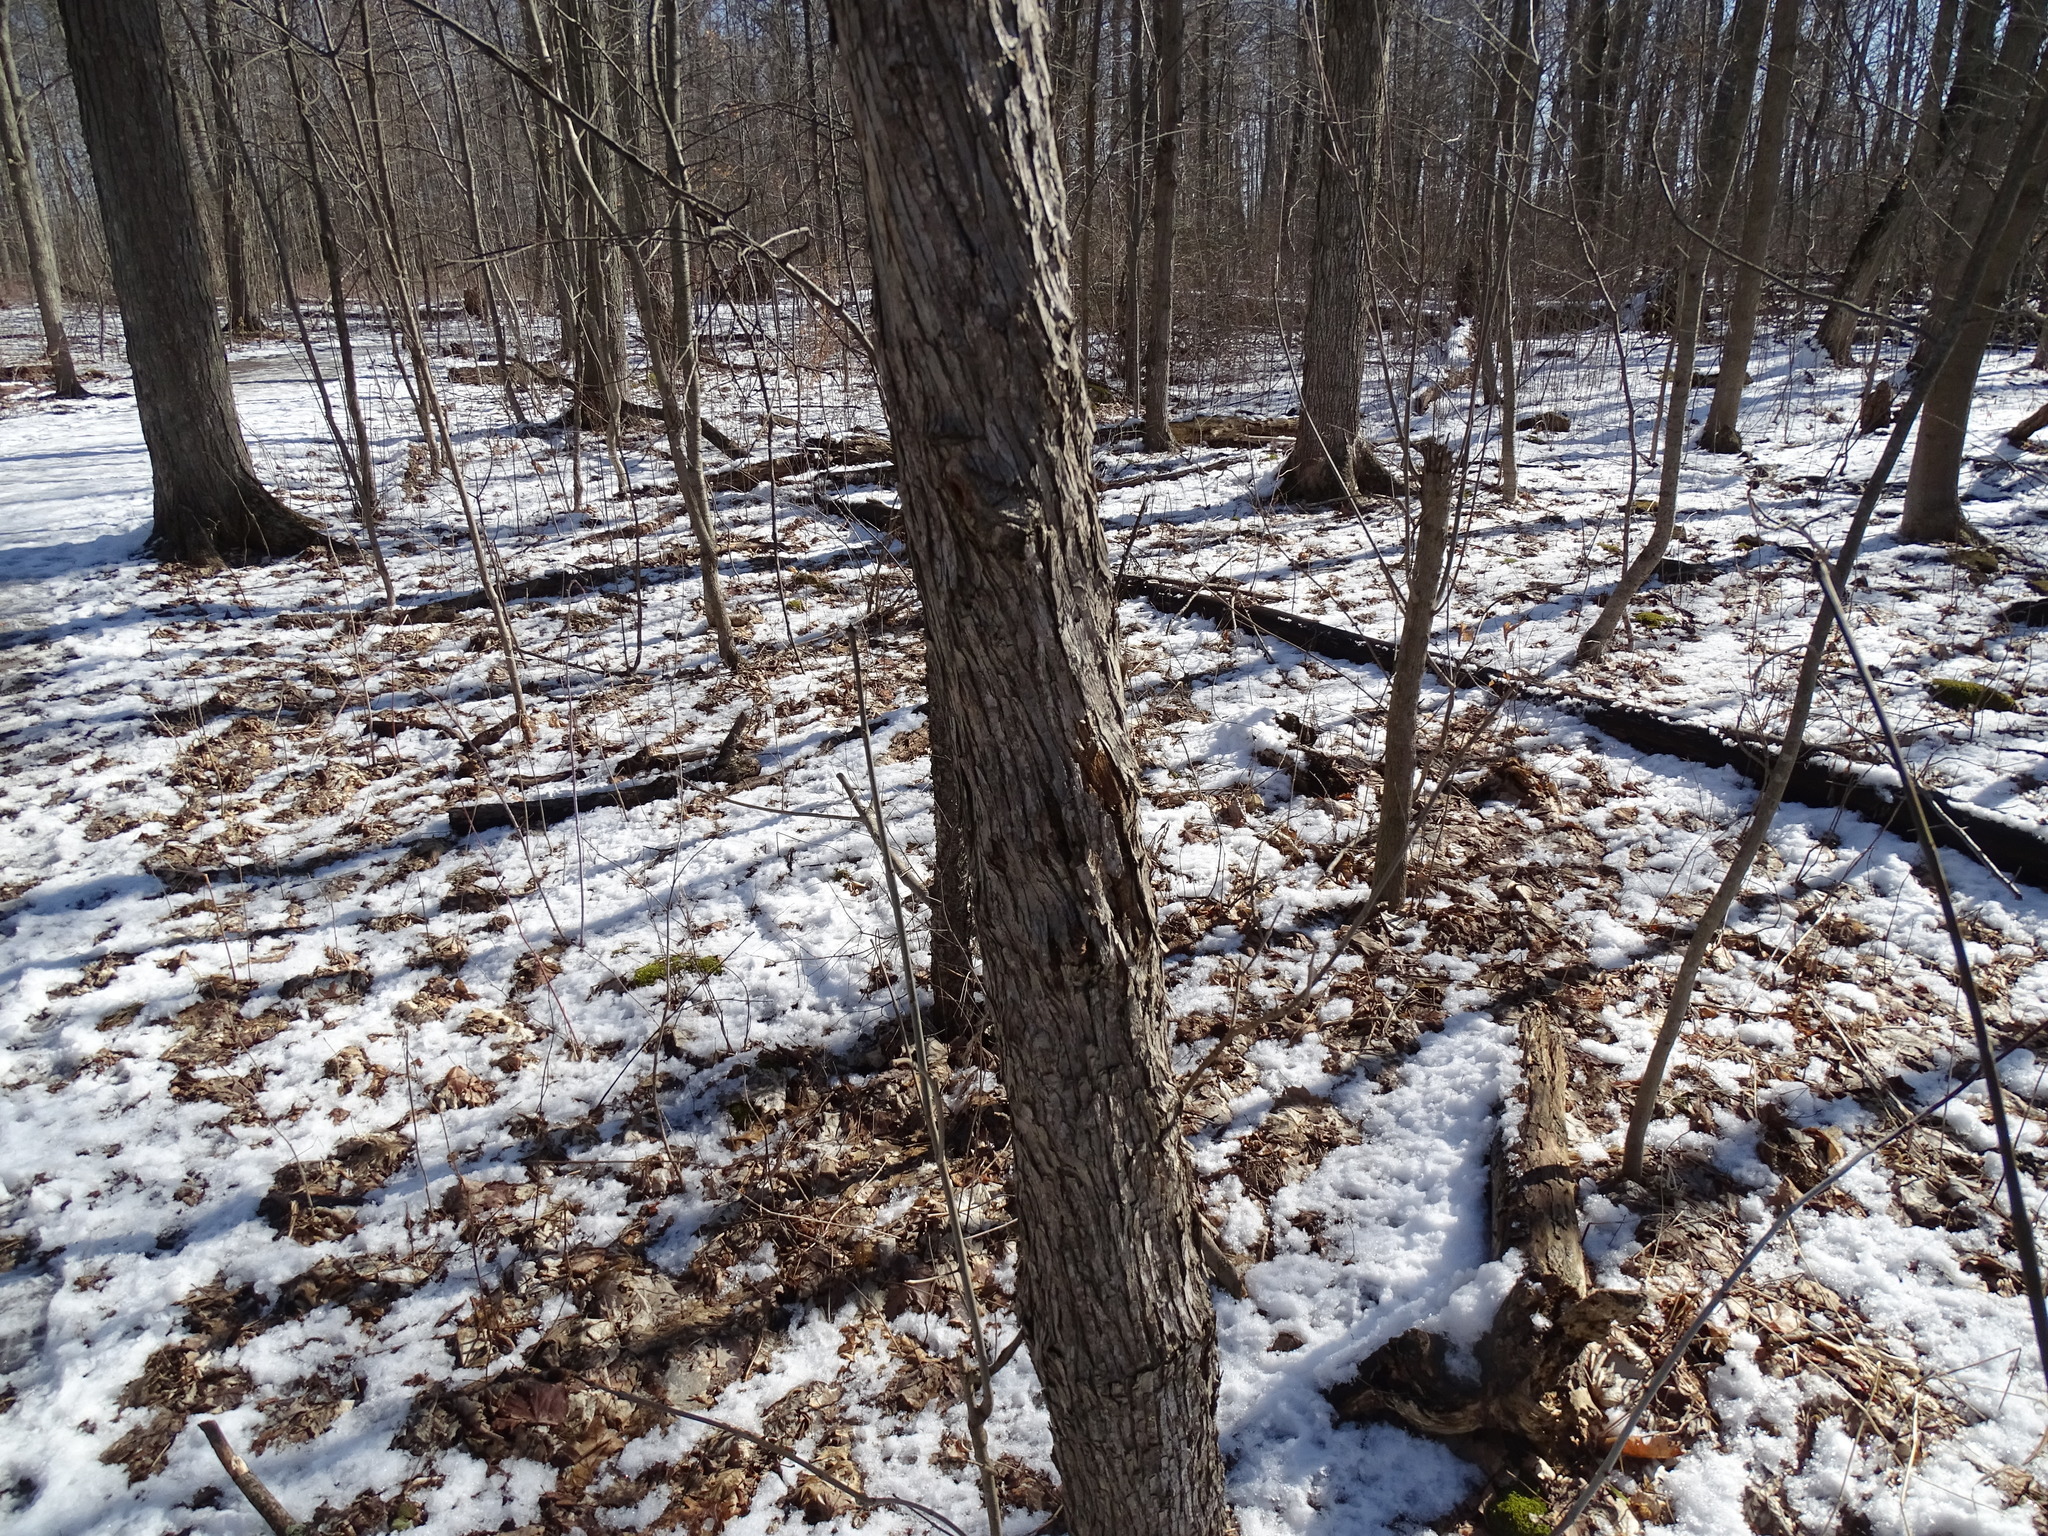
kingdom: Plantae
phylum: Tracheophyta
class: Magnoliopsida
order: Fagales
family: Betulaceae
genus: Ostrya
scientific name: Ostrya virginiana
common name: Ironwood
